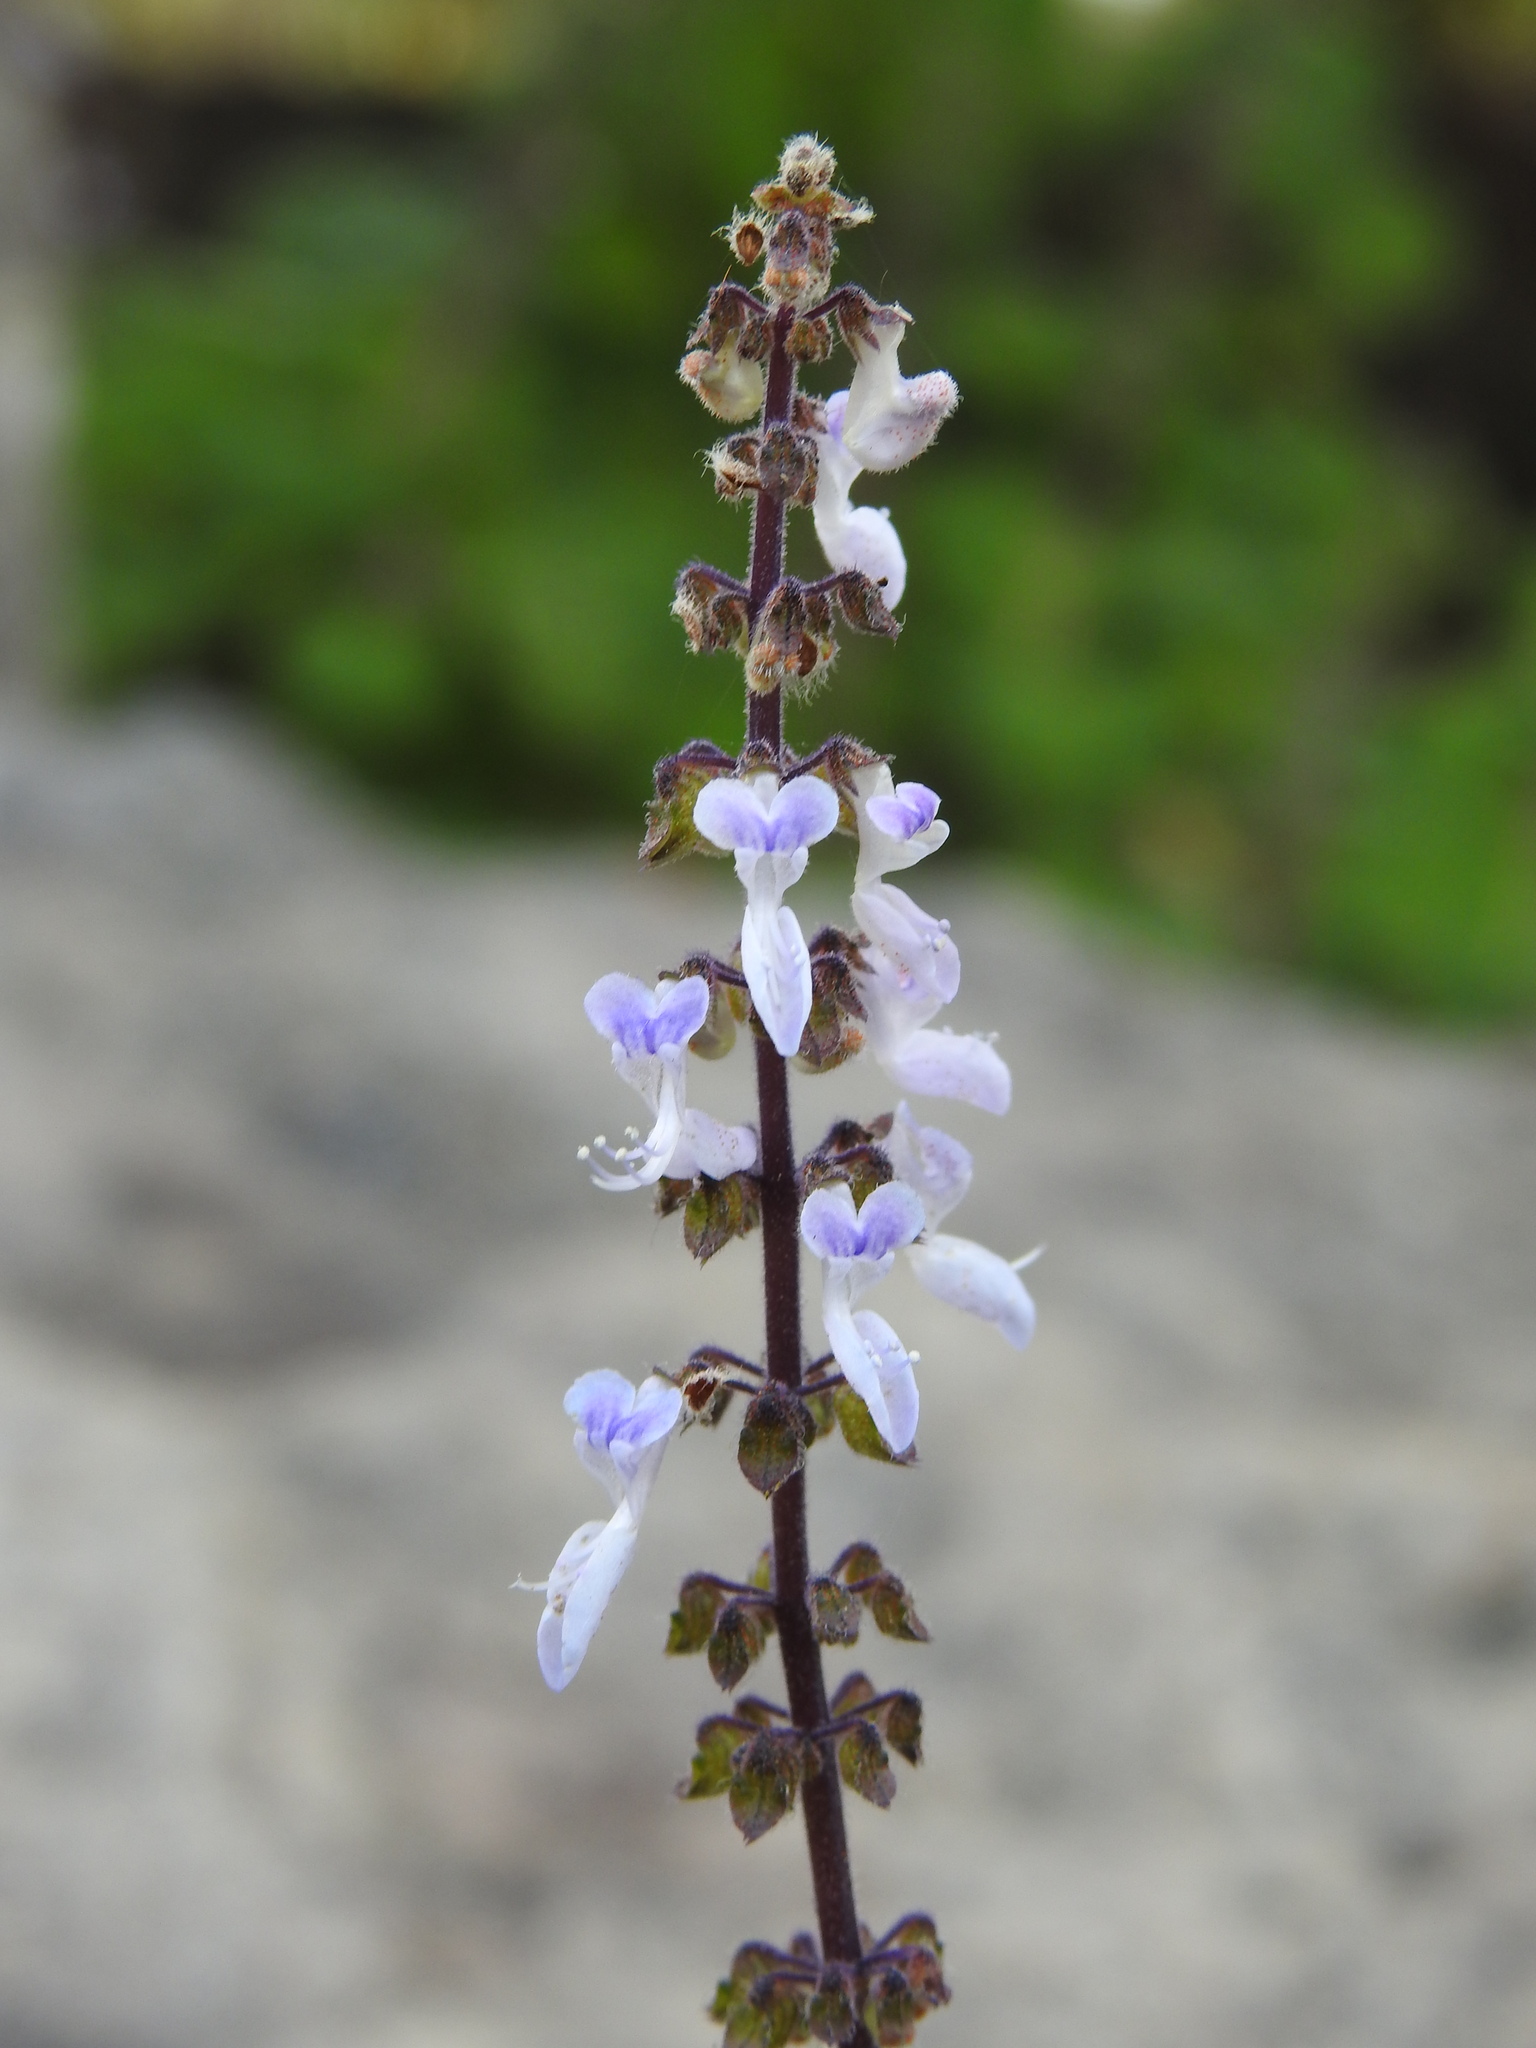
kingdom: Plantae
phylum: Tracheophyta
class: Magnoliopsida
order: Lamiales
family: Lamiaceae
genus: Coleus
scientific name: Coleus hadiensis
